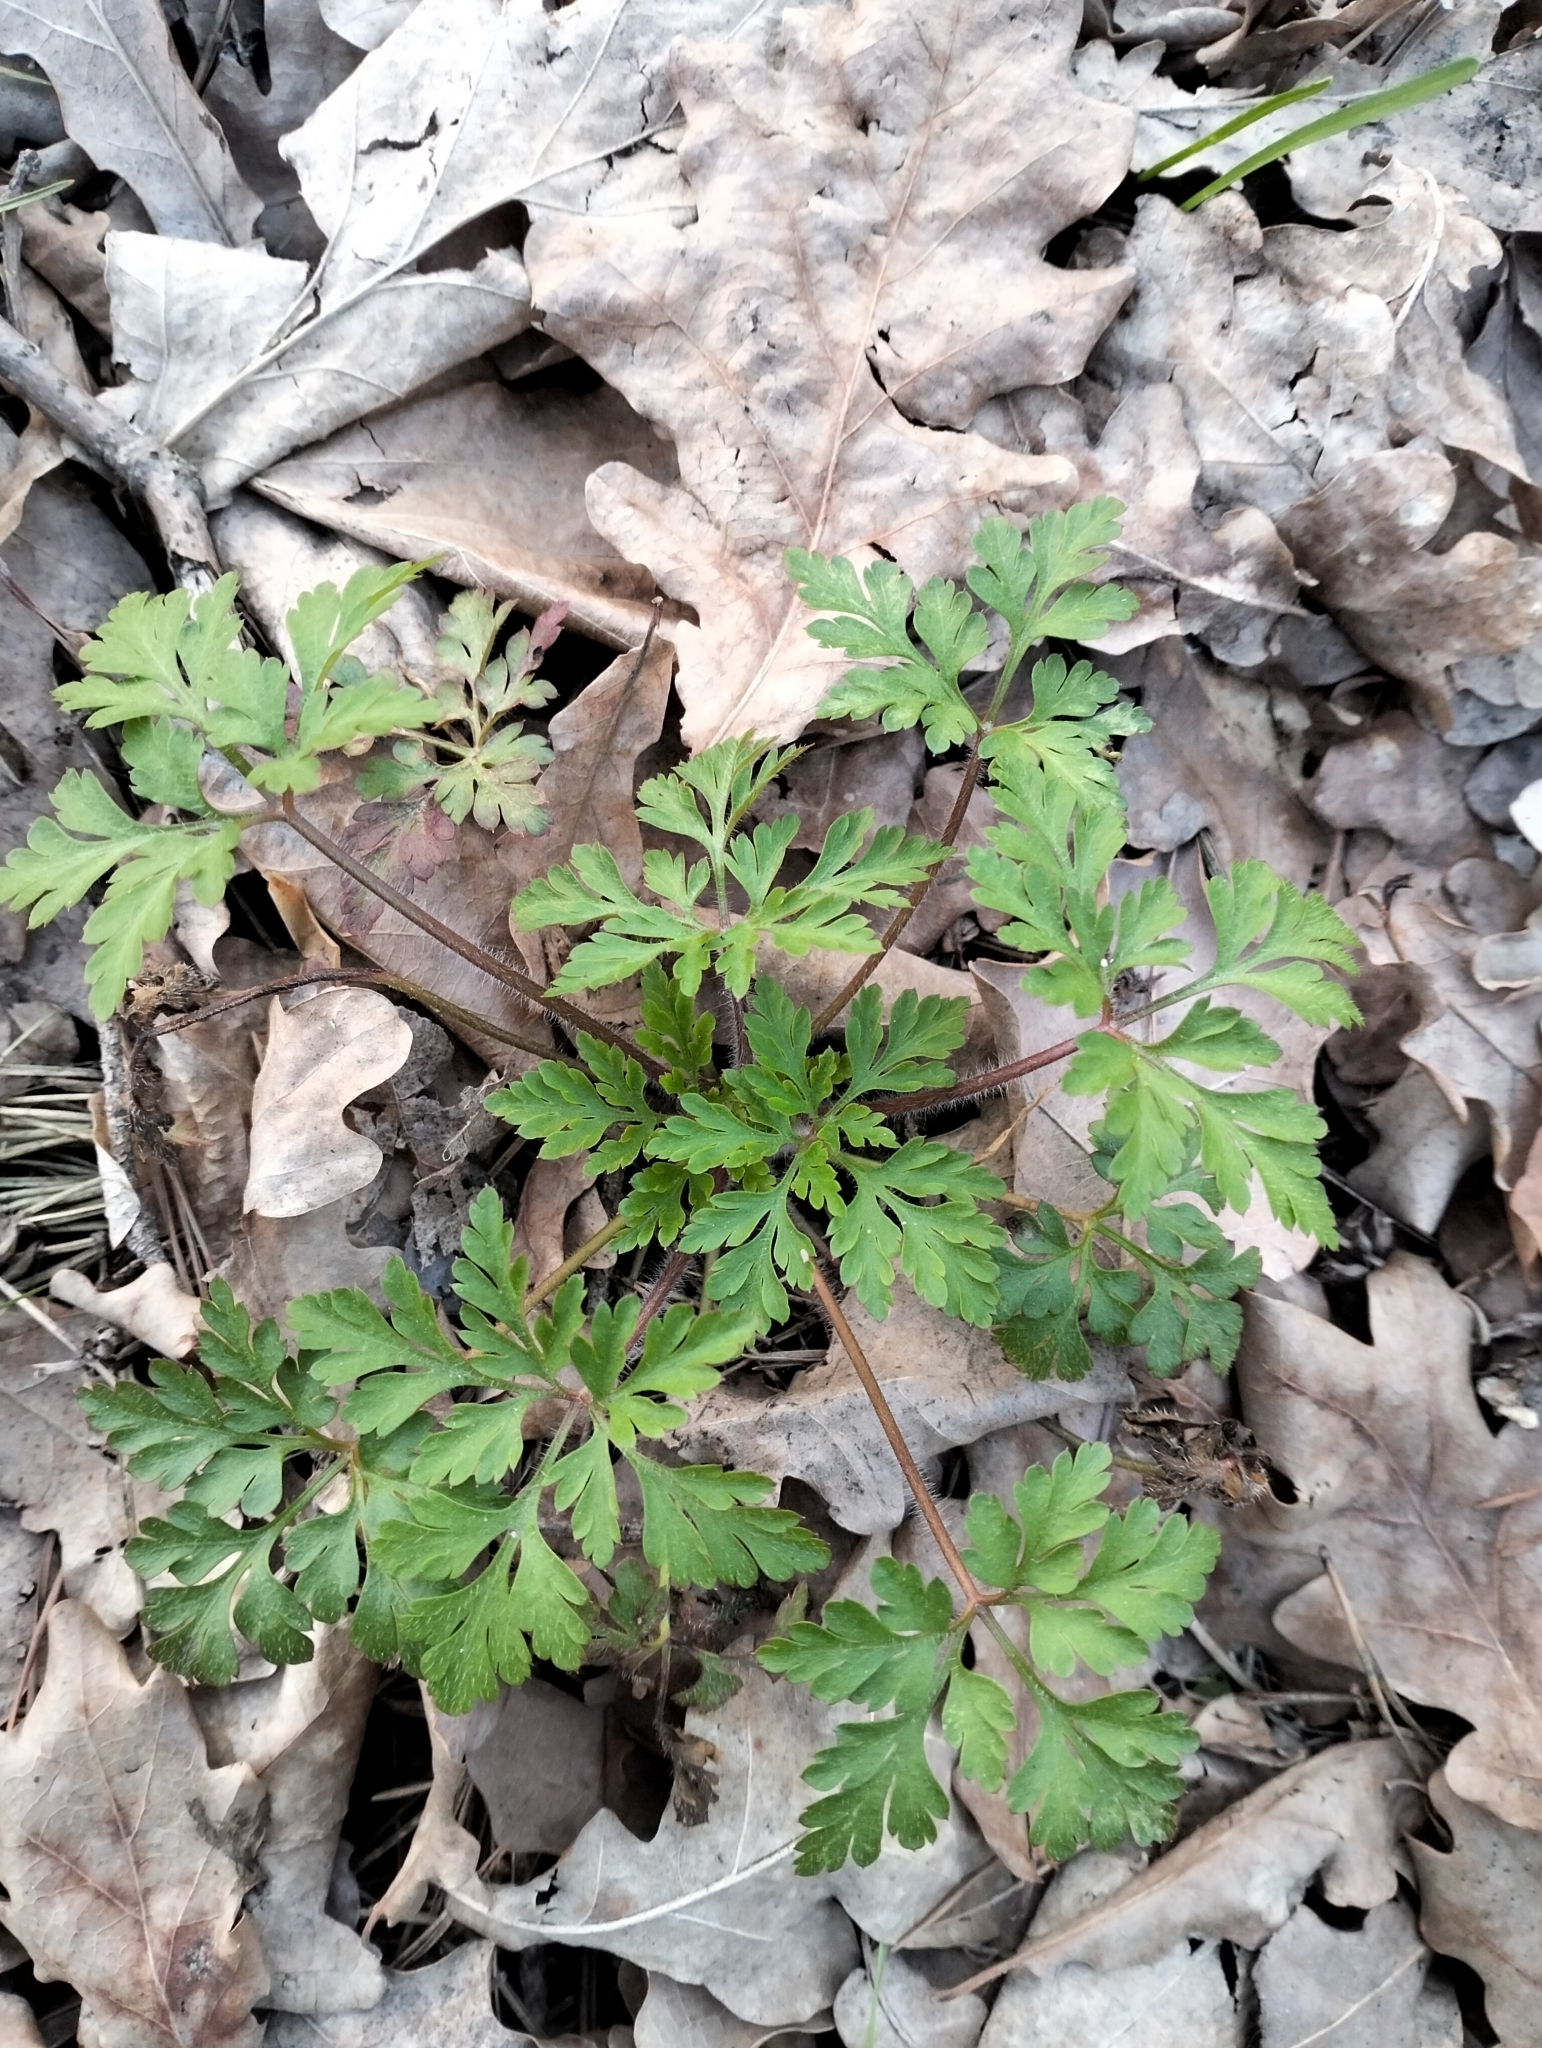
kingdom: Plantae
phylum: Tracheophyta
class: Magnoliopsida
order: Geraniales
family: Geraniaceae
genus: Geranium
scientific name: Geranium robertianum
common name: Herb-robert
